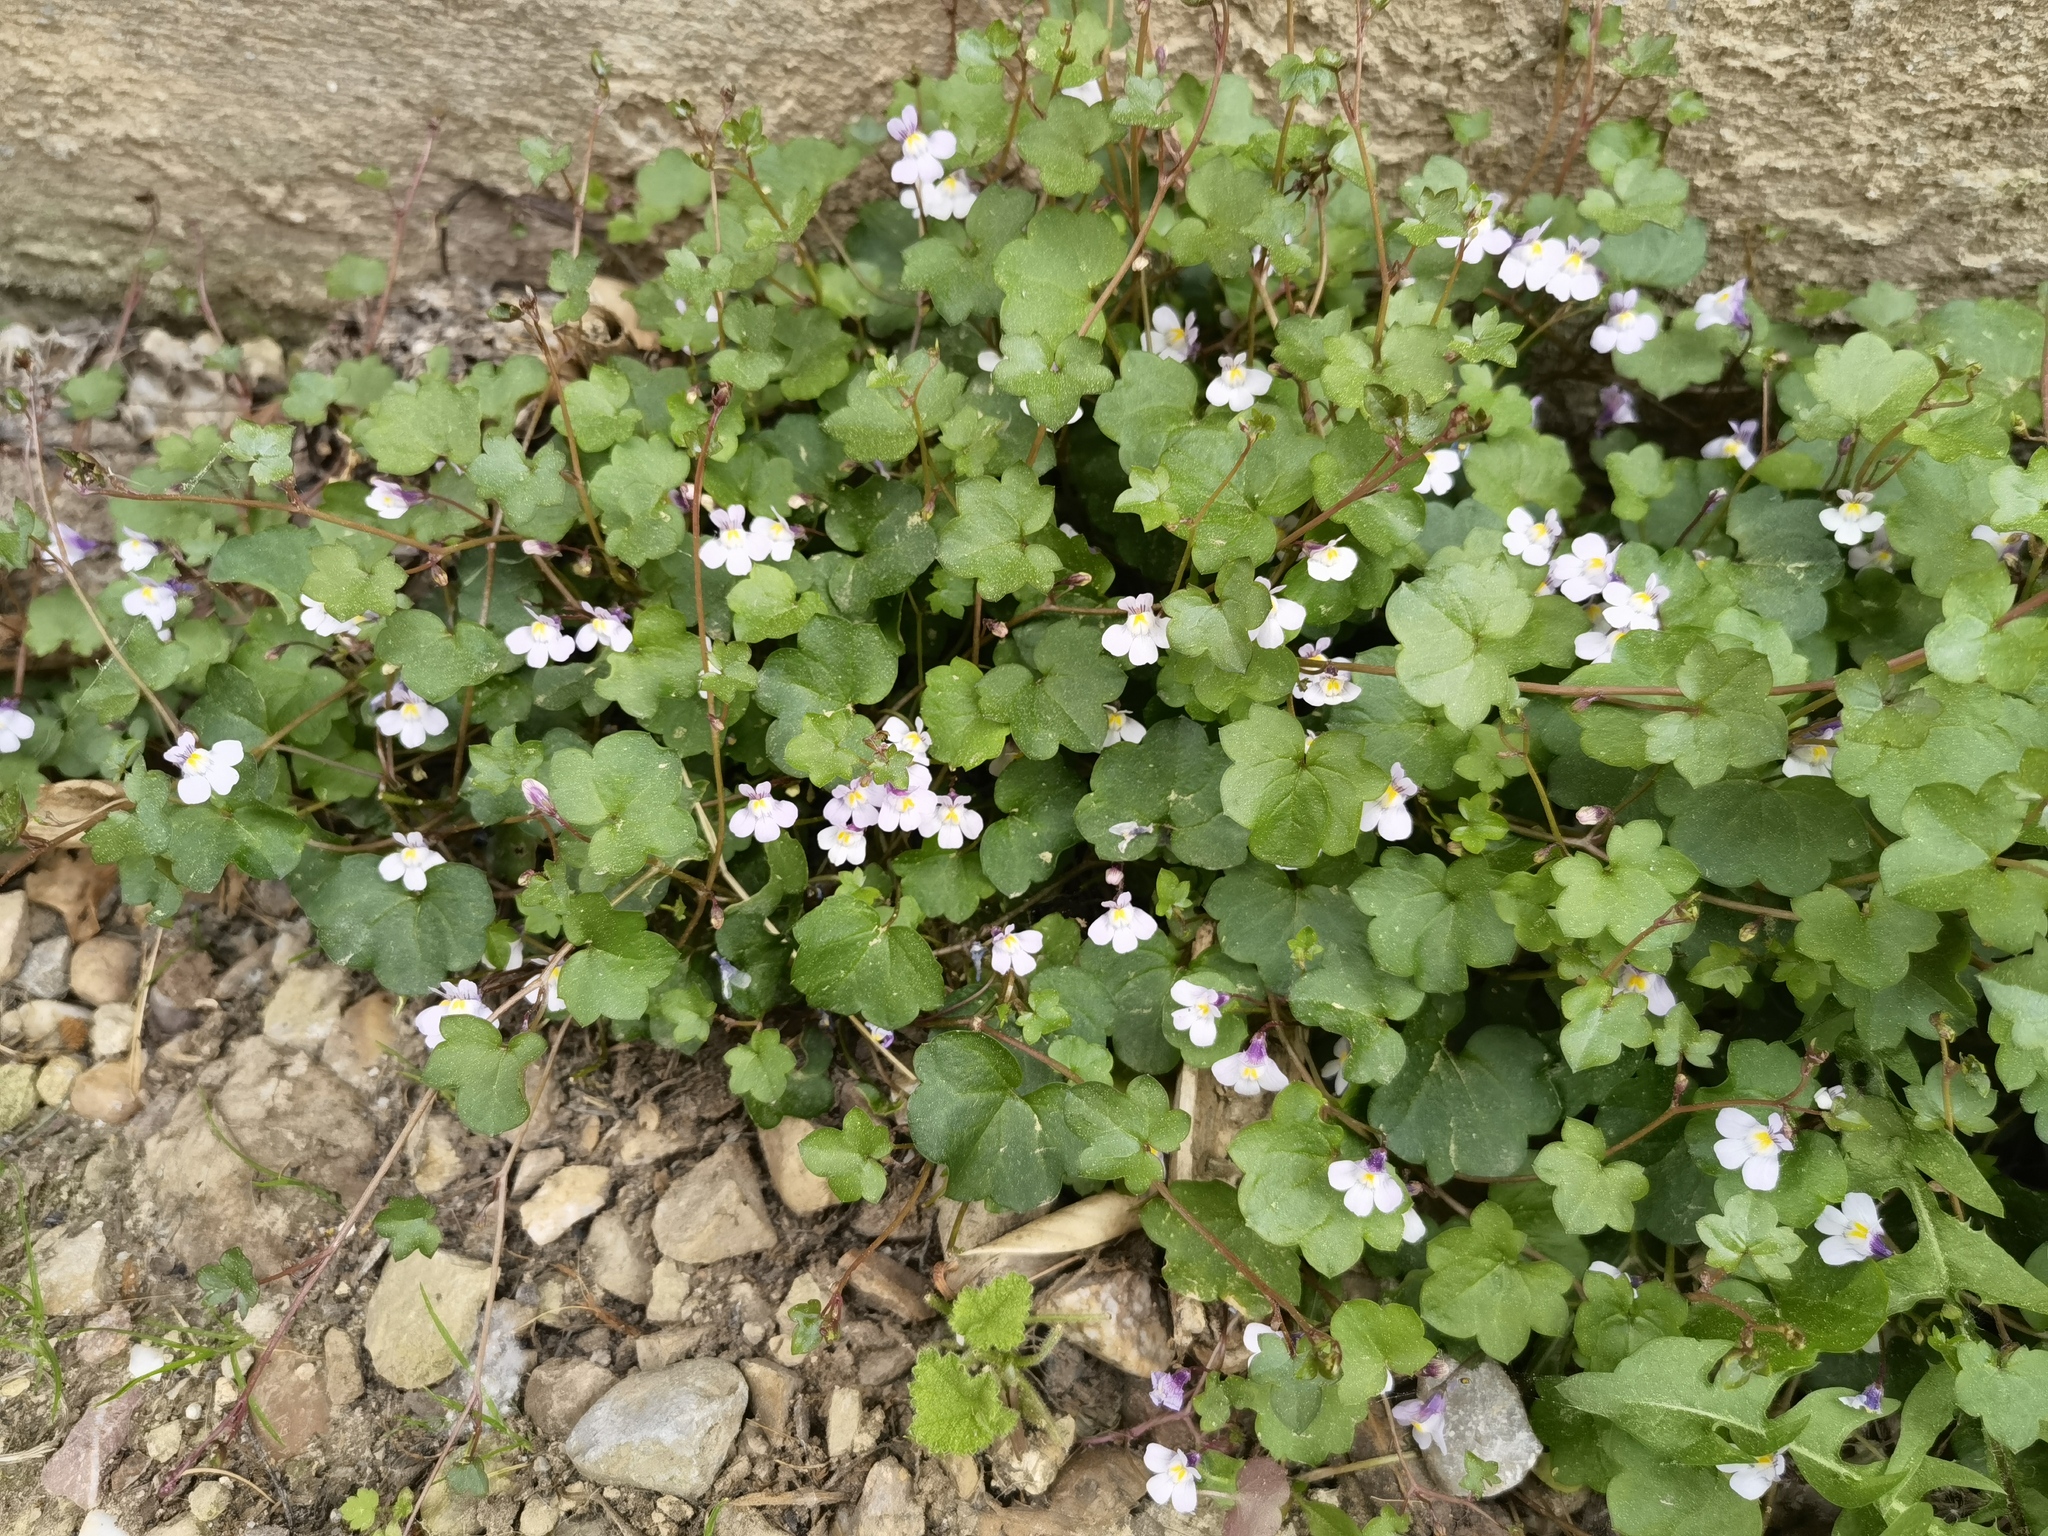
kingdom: Plantae
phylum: Tracheophyta
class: Magnoliopsida
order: Lamiales
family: Plantaginaceae
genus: Cymbalaria
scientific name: Cymbalaria muralis
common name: Ivy-leaved toadflax
